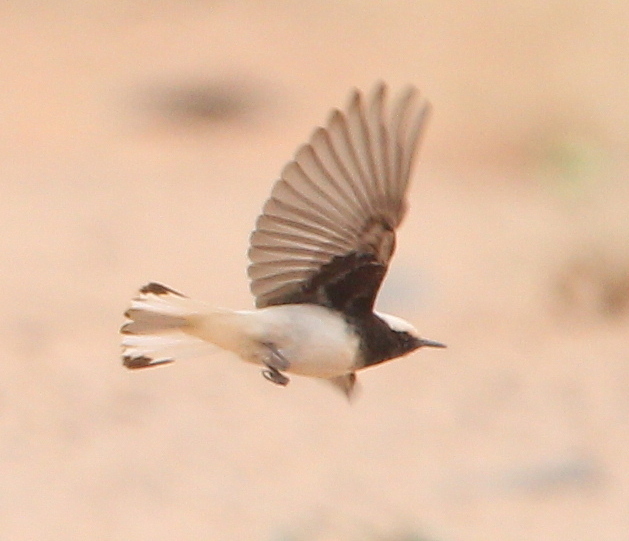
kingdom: Animalia
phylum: Chordata
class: Aves
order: Passeriformes
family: Muscicapidae
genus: Oenanthe
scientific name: Oenanthe monacha
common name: Hooded wheatear
